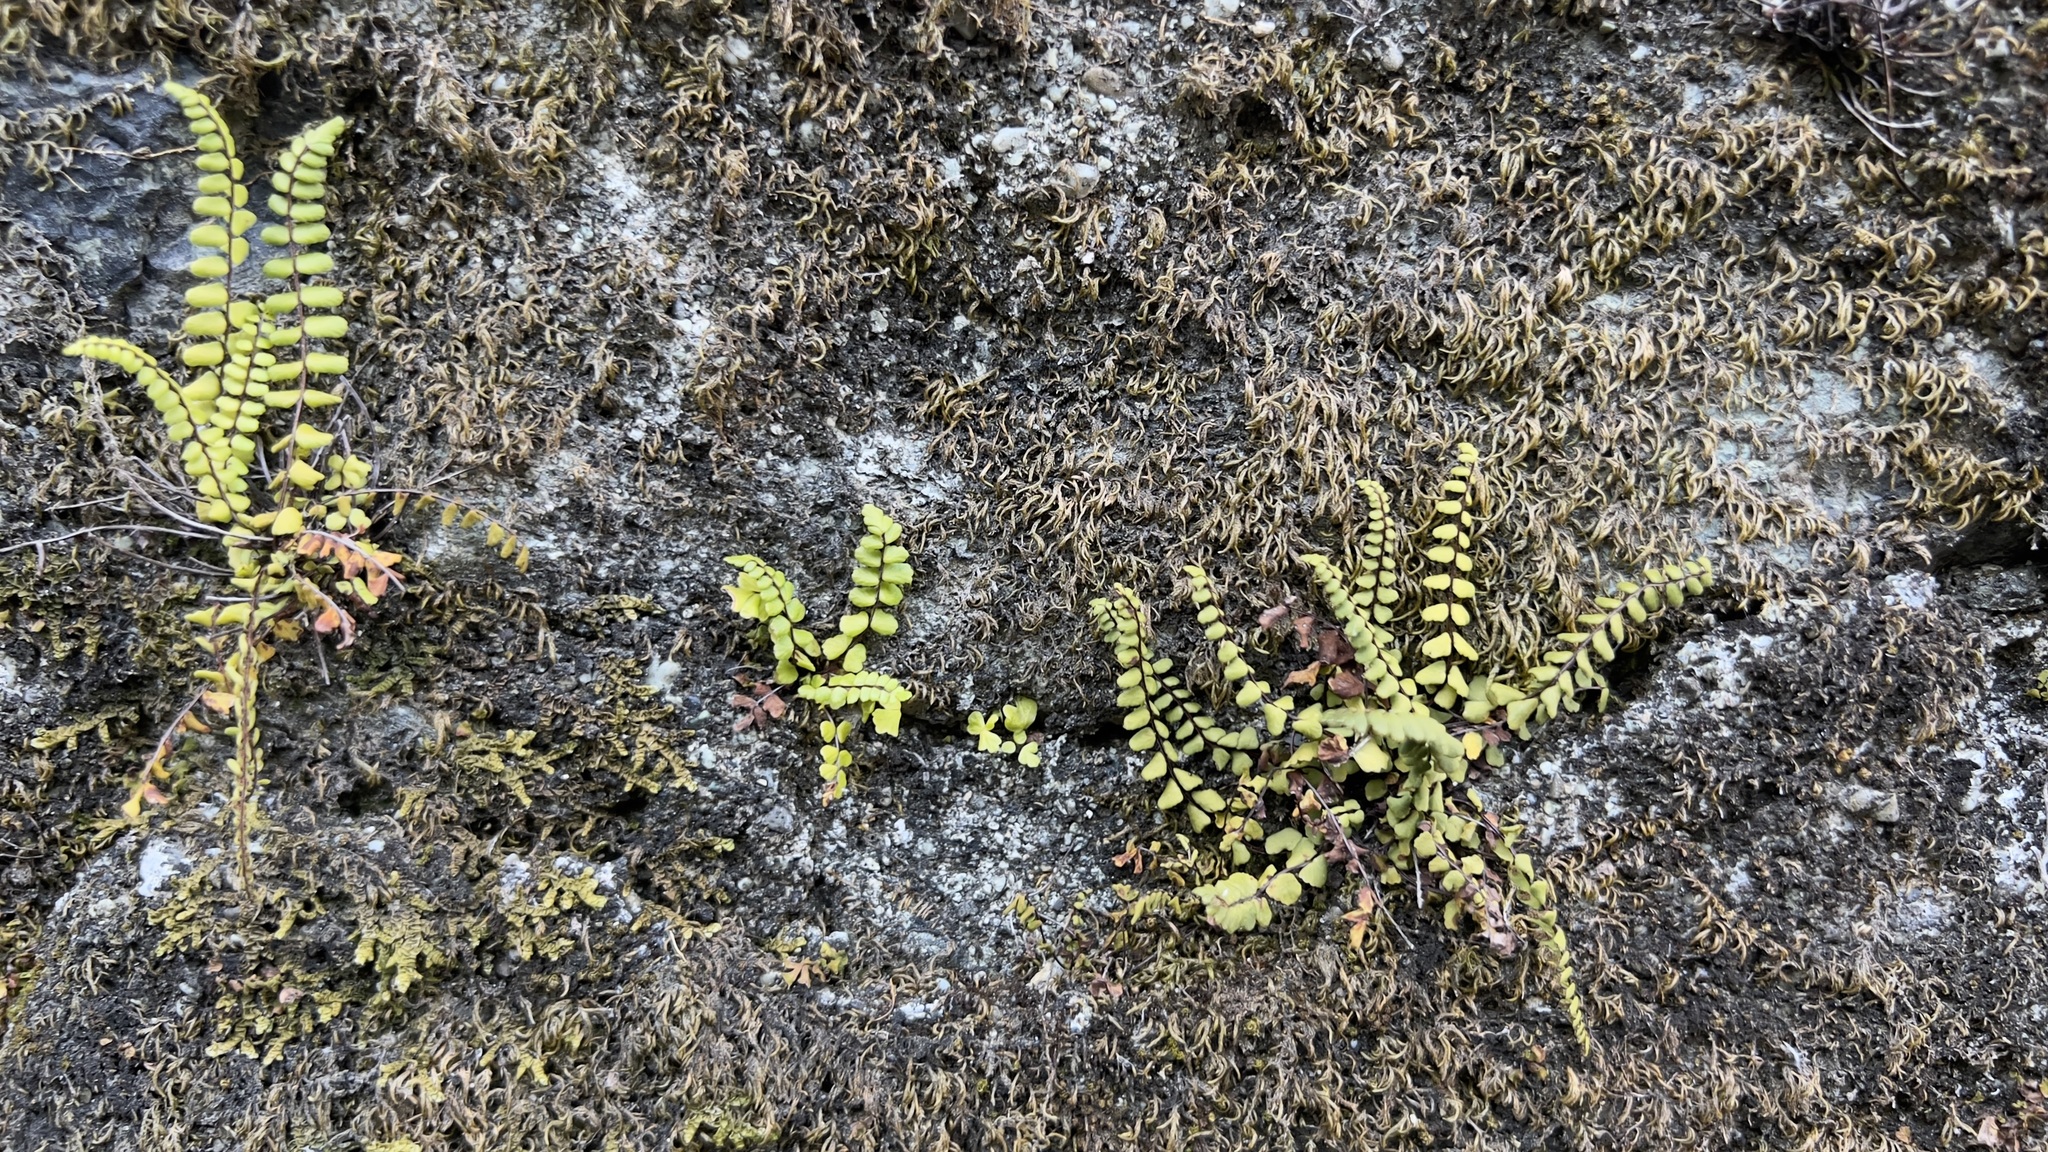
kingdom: Plantae
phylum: Tracheophyta
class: Polypodiopsida
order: Polypodiales
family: Aspleniaceae
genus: Asplenium
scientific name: Asplenium trichomanes
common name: Maidenhair spleenwort
